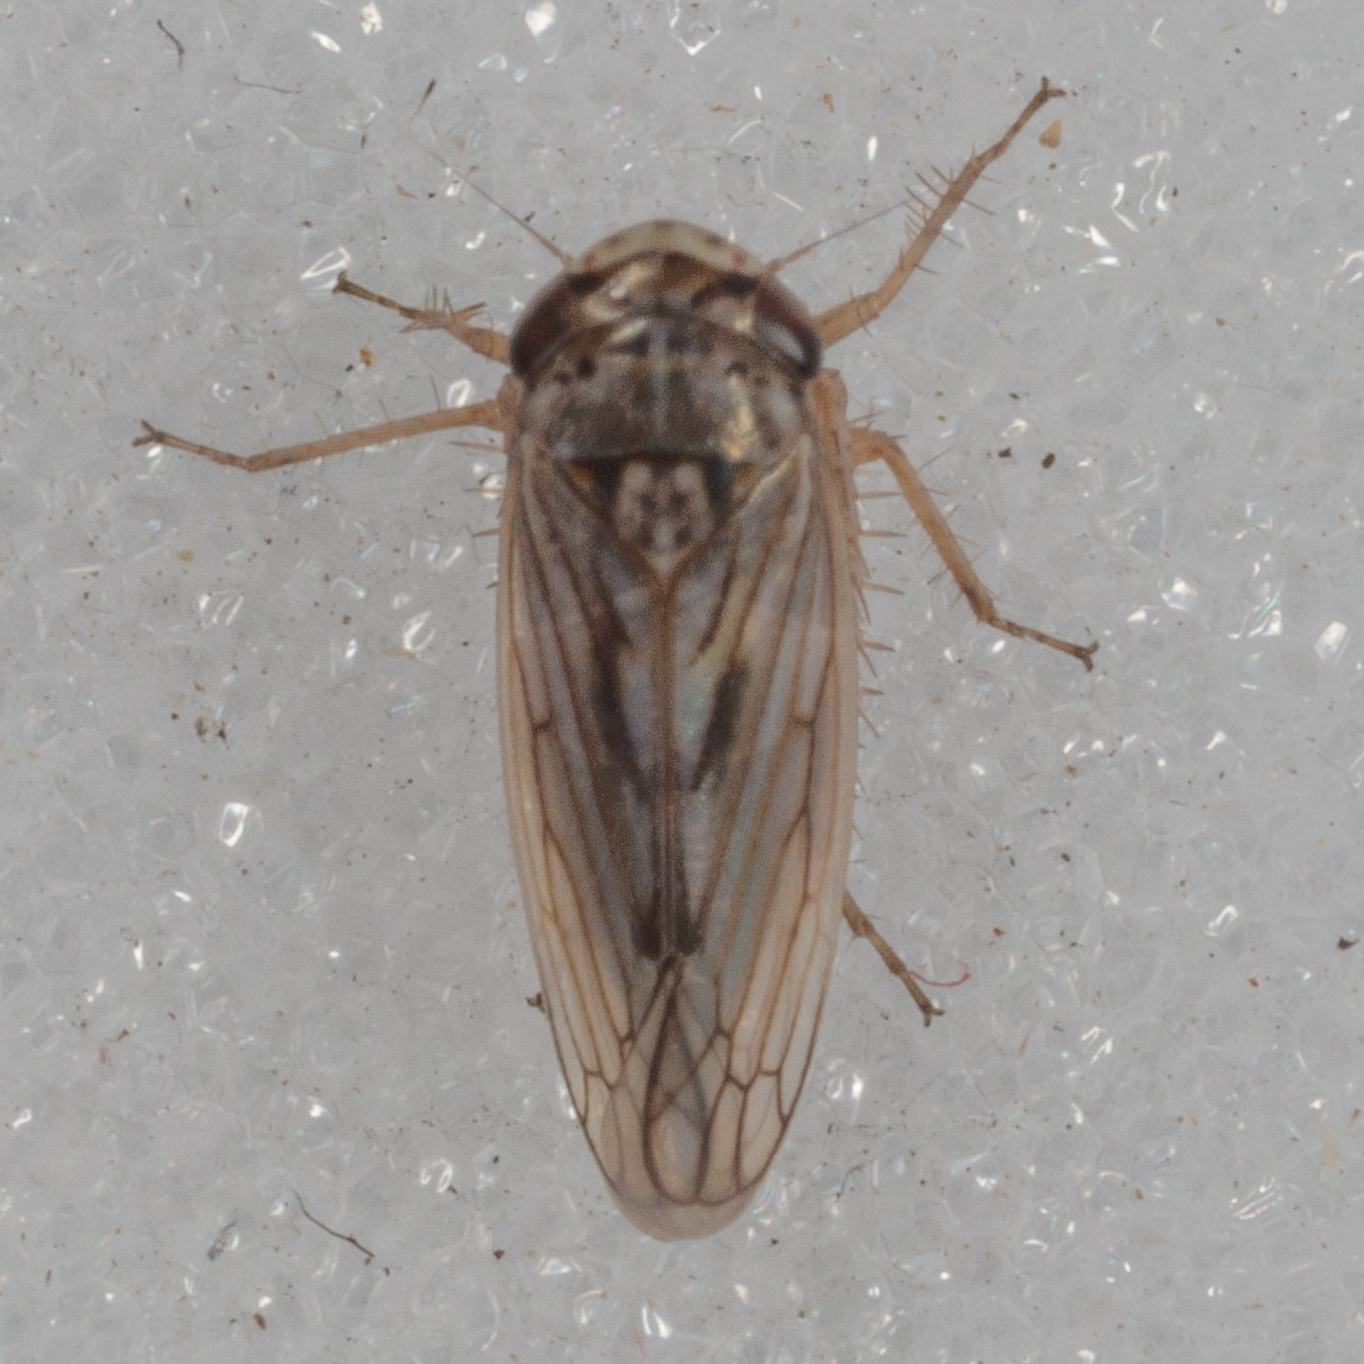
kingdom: Animalia
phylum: Arthropoda
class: Insecta
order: Hemiptera
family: Cicadellidae
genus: Exitianus
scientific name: Exitianus exitiosus
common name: Gray lawn leafhopper
